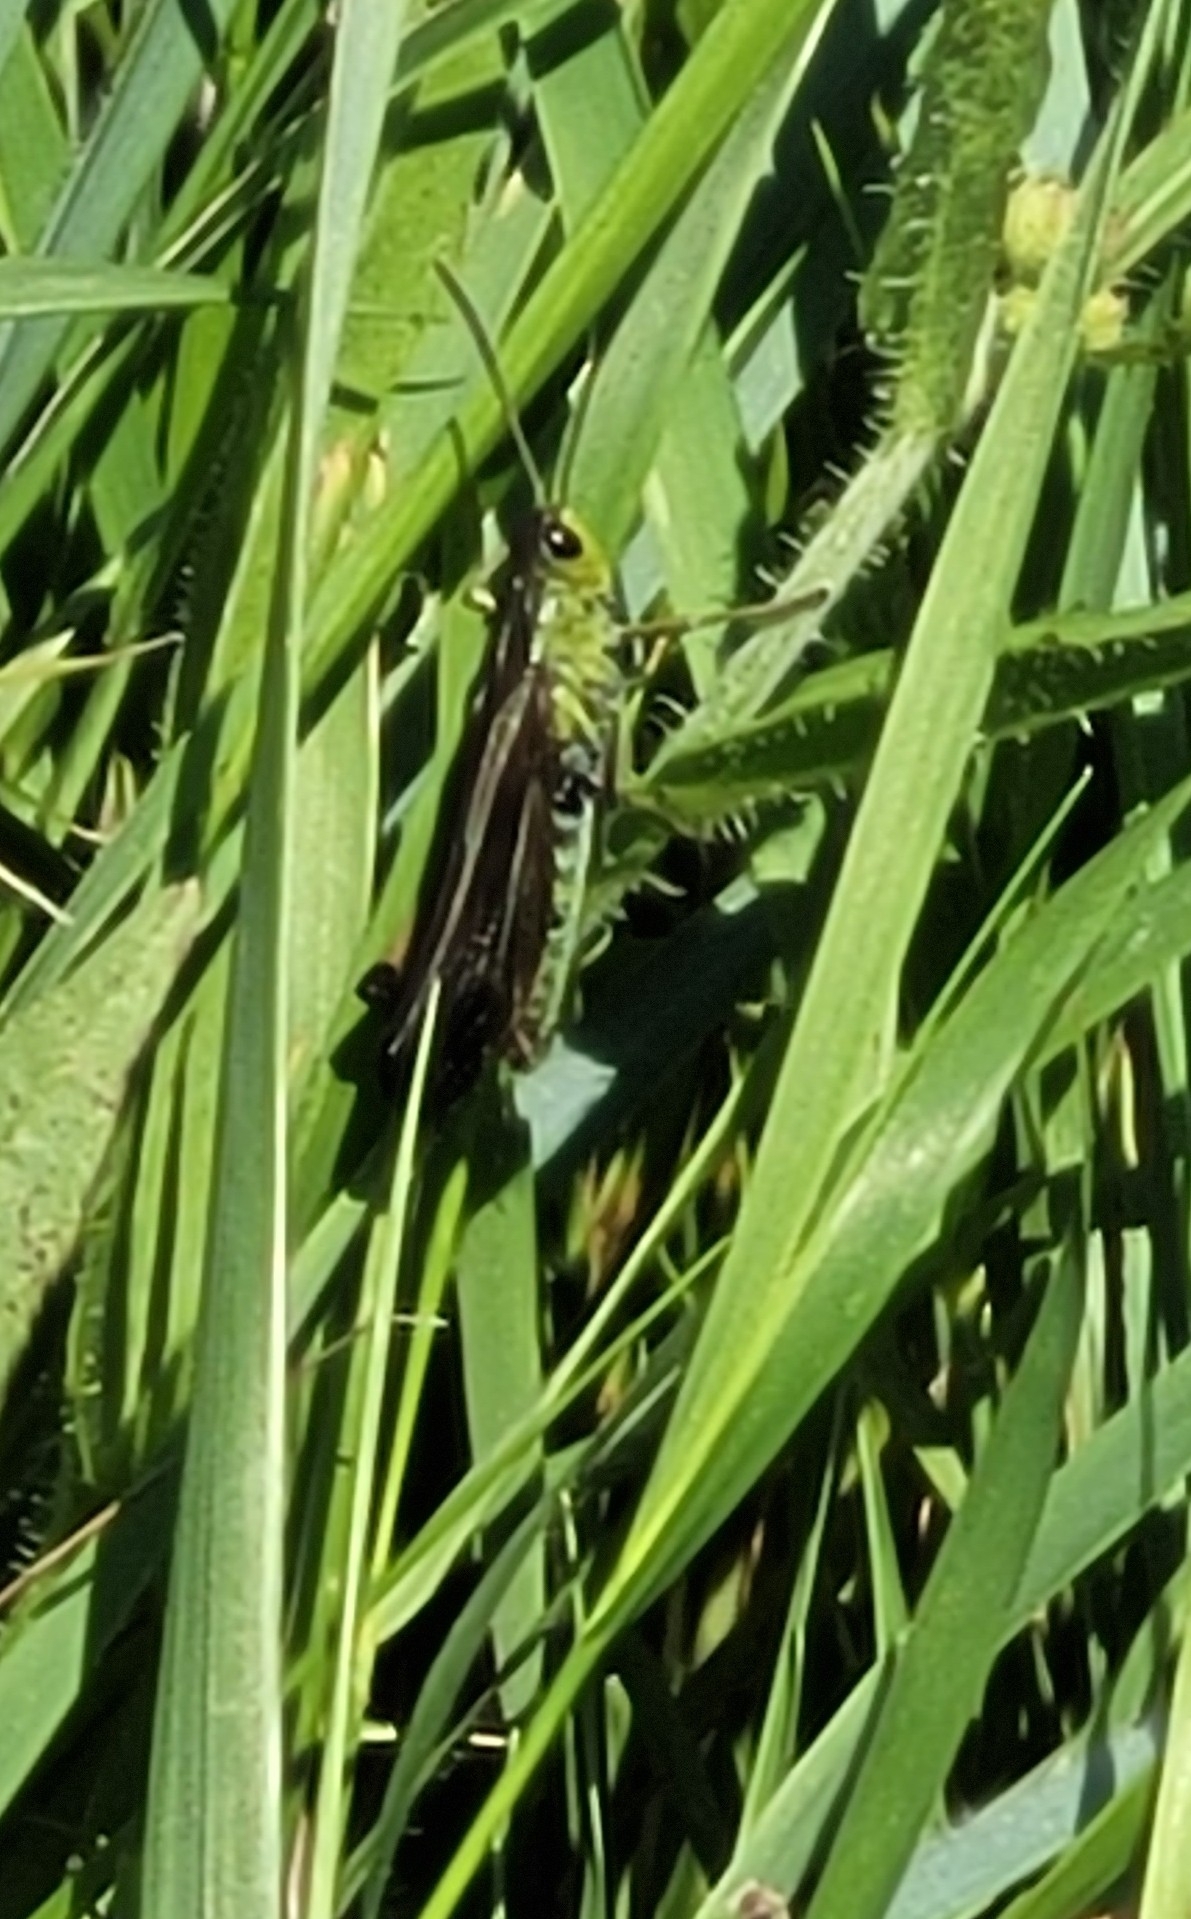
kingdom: Animalia
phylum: Arthropoda
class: Insecta
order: Orthoptera
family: Acrididae
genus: Stauroderus
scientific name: Stauroderus scalaris
